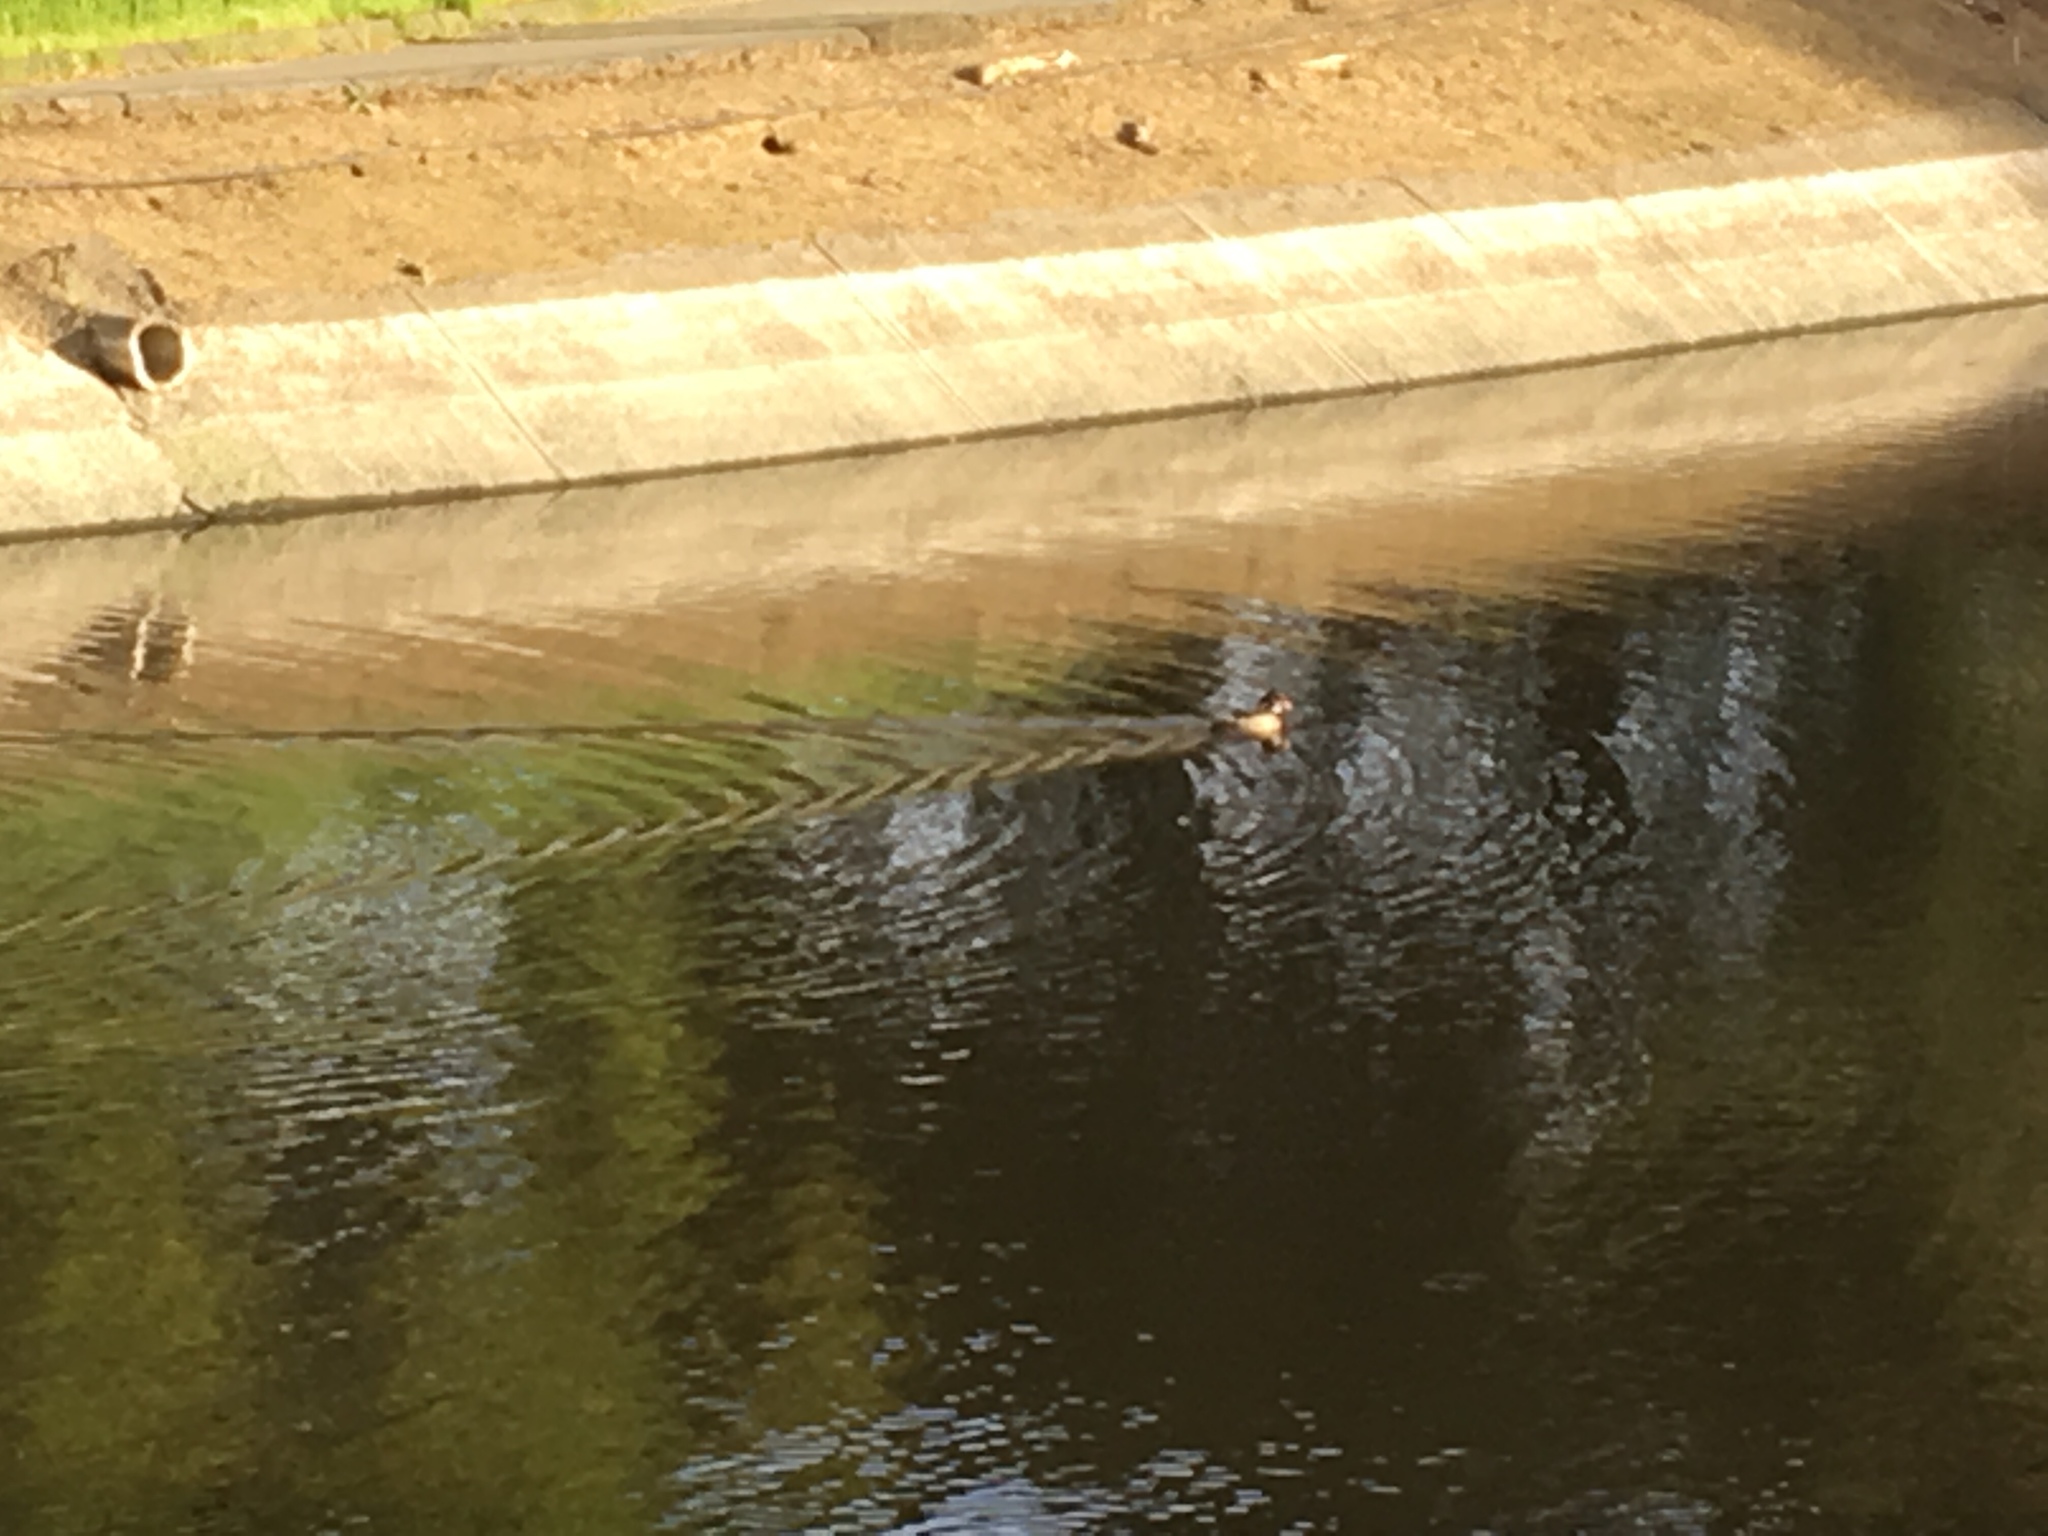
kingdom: Animalia
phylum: Chordata
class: Aves
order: Anseriformes
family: Anatidae
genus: Aix
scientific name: Aix sponsa
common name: Wood duck
